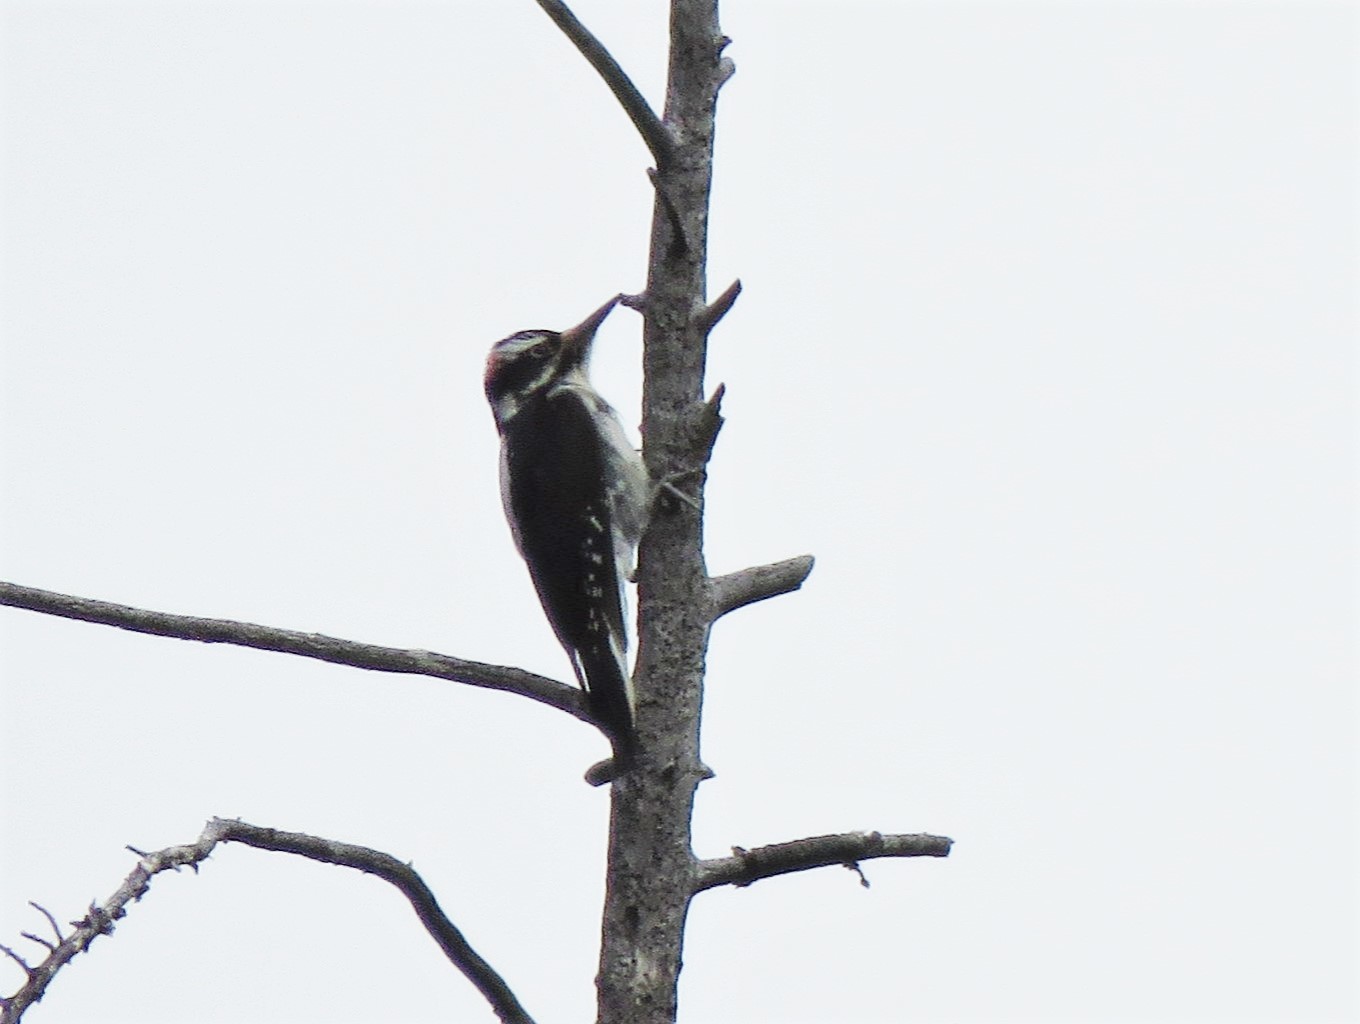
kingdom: Animalia
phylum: Chordata
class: Aves
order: Piciformes
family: Picidae
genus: Leuconotopicus
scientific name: Leuconotopicus villosus
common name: Hairy woodpecker
